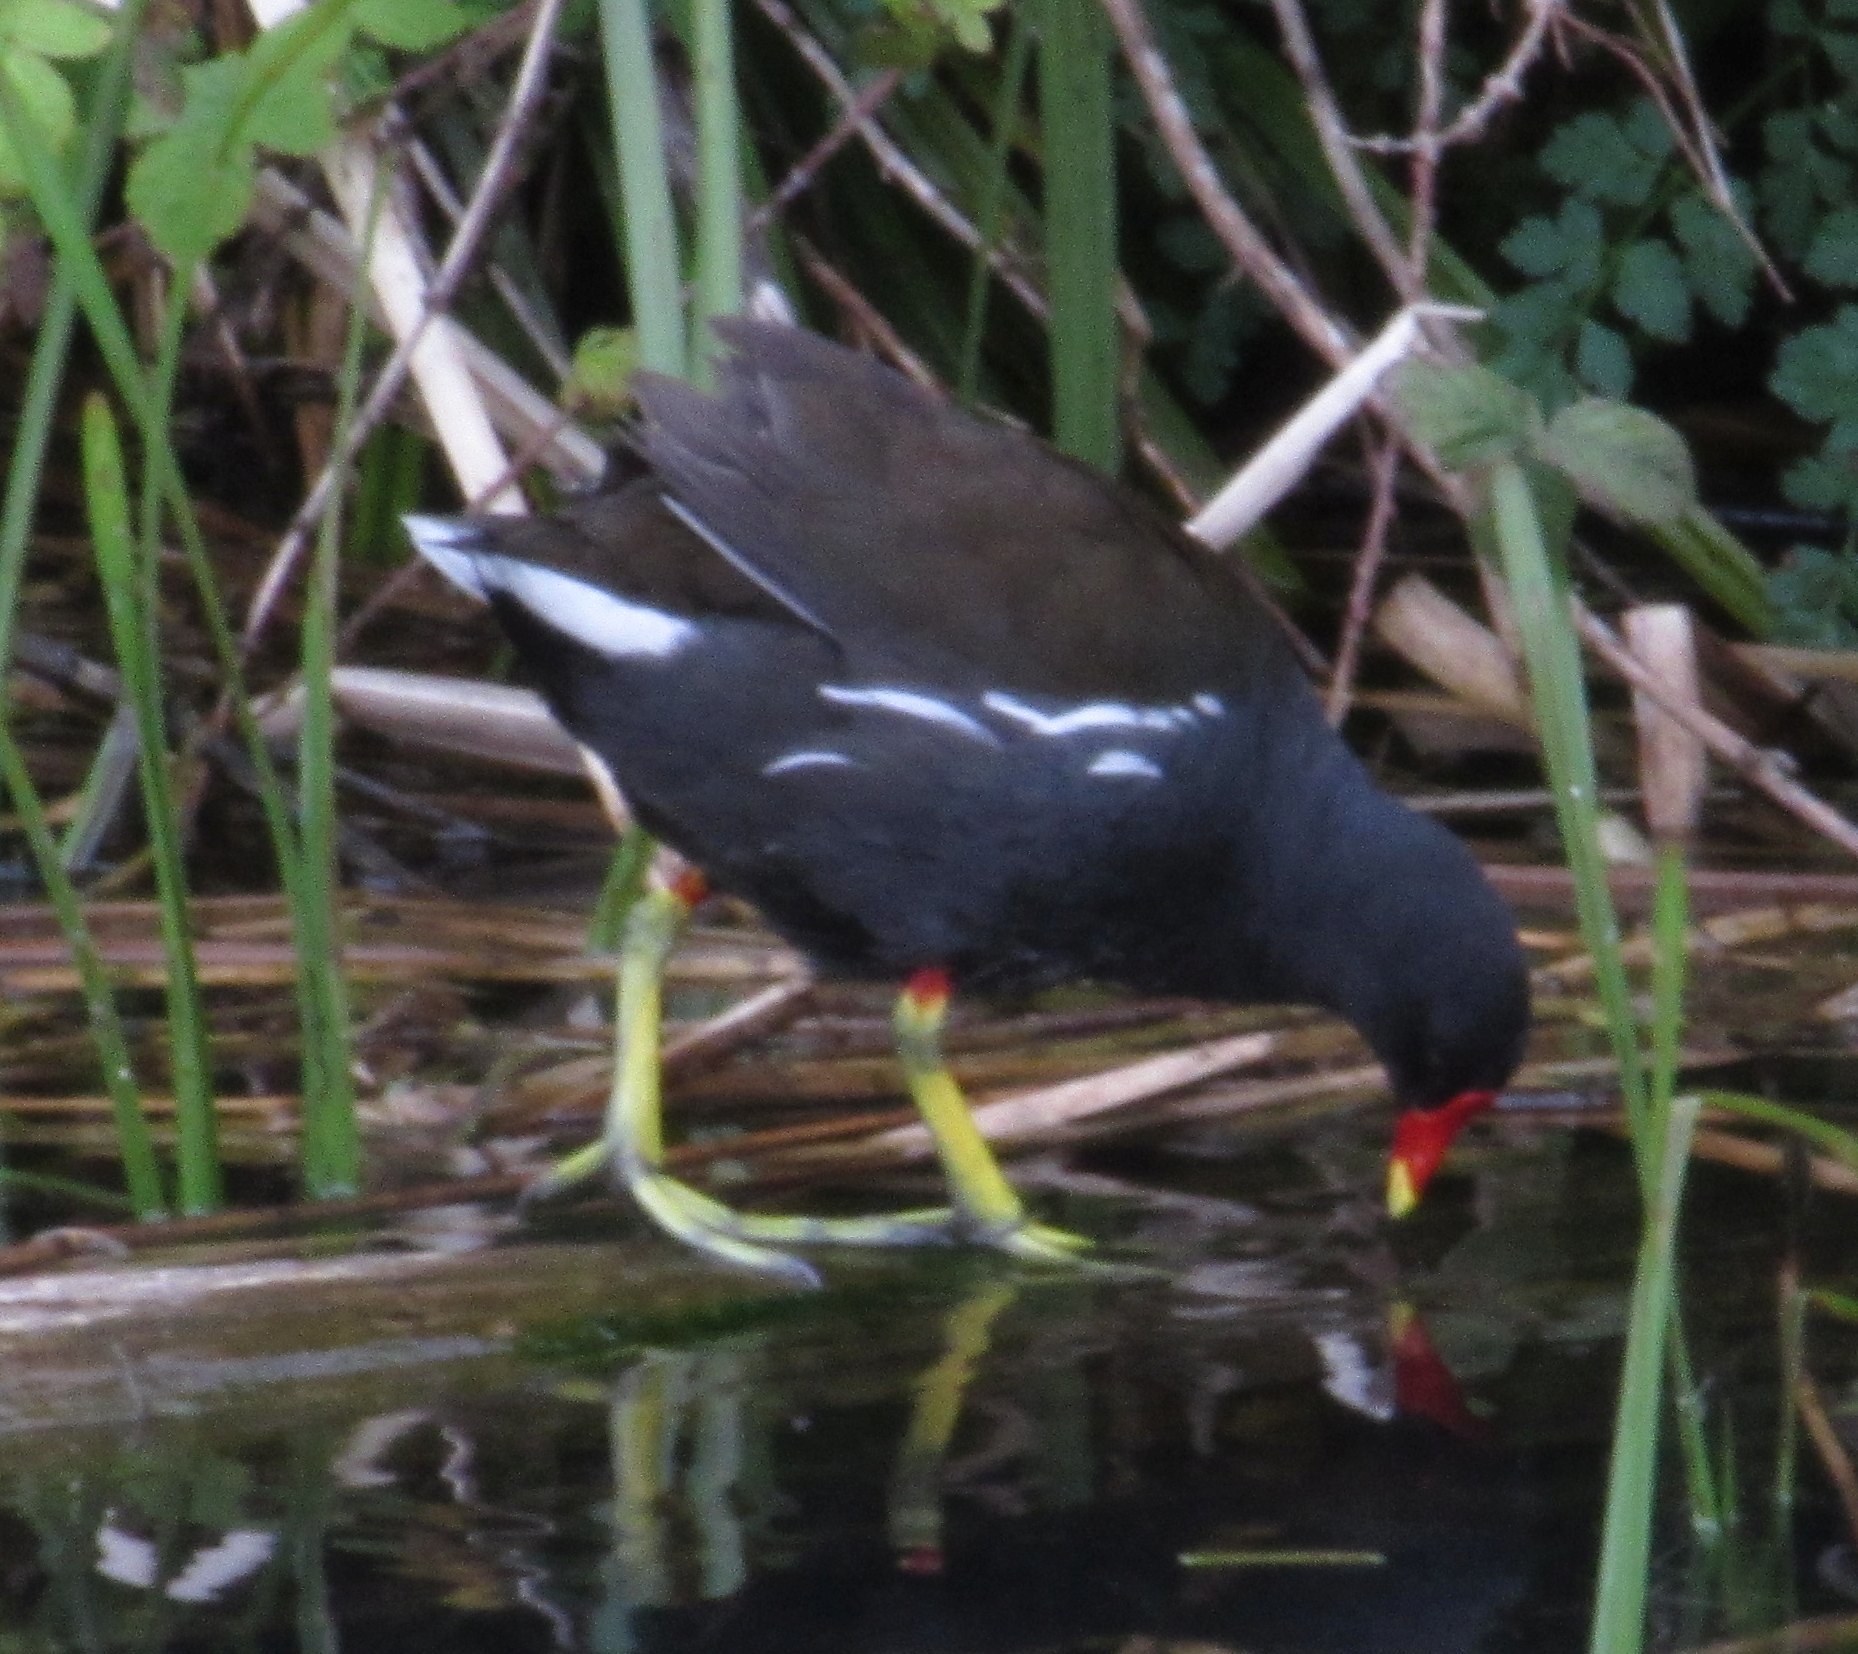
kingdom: Animalia
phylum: Chordata
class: Aves
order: Gruiformes
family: Rallidae
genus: Gallinula
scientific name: Gallinula chloropus
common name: Common moorhen
